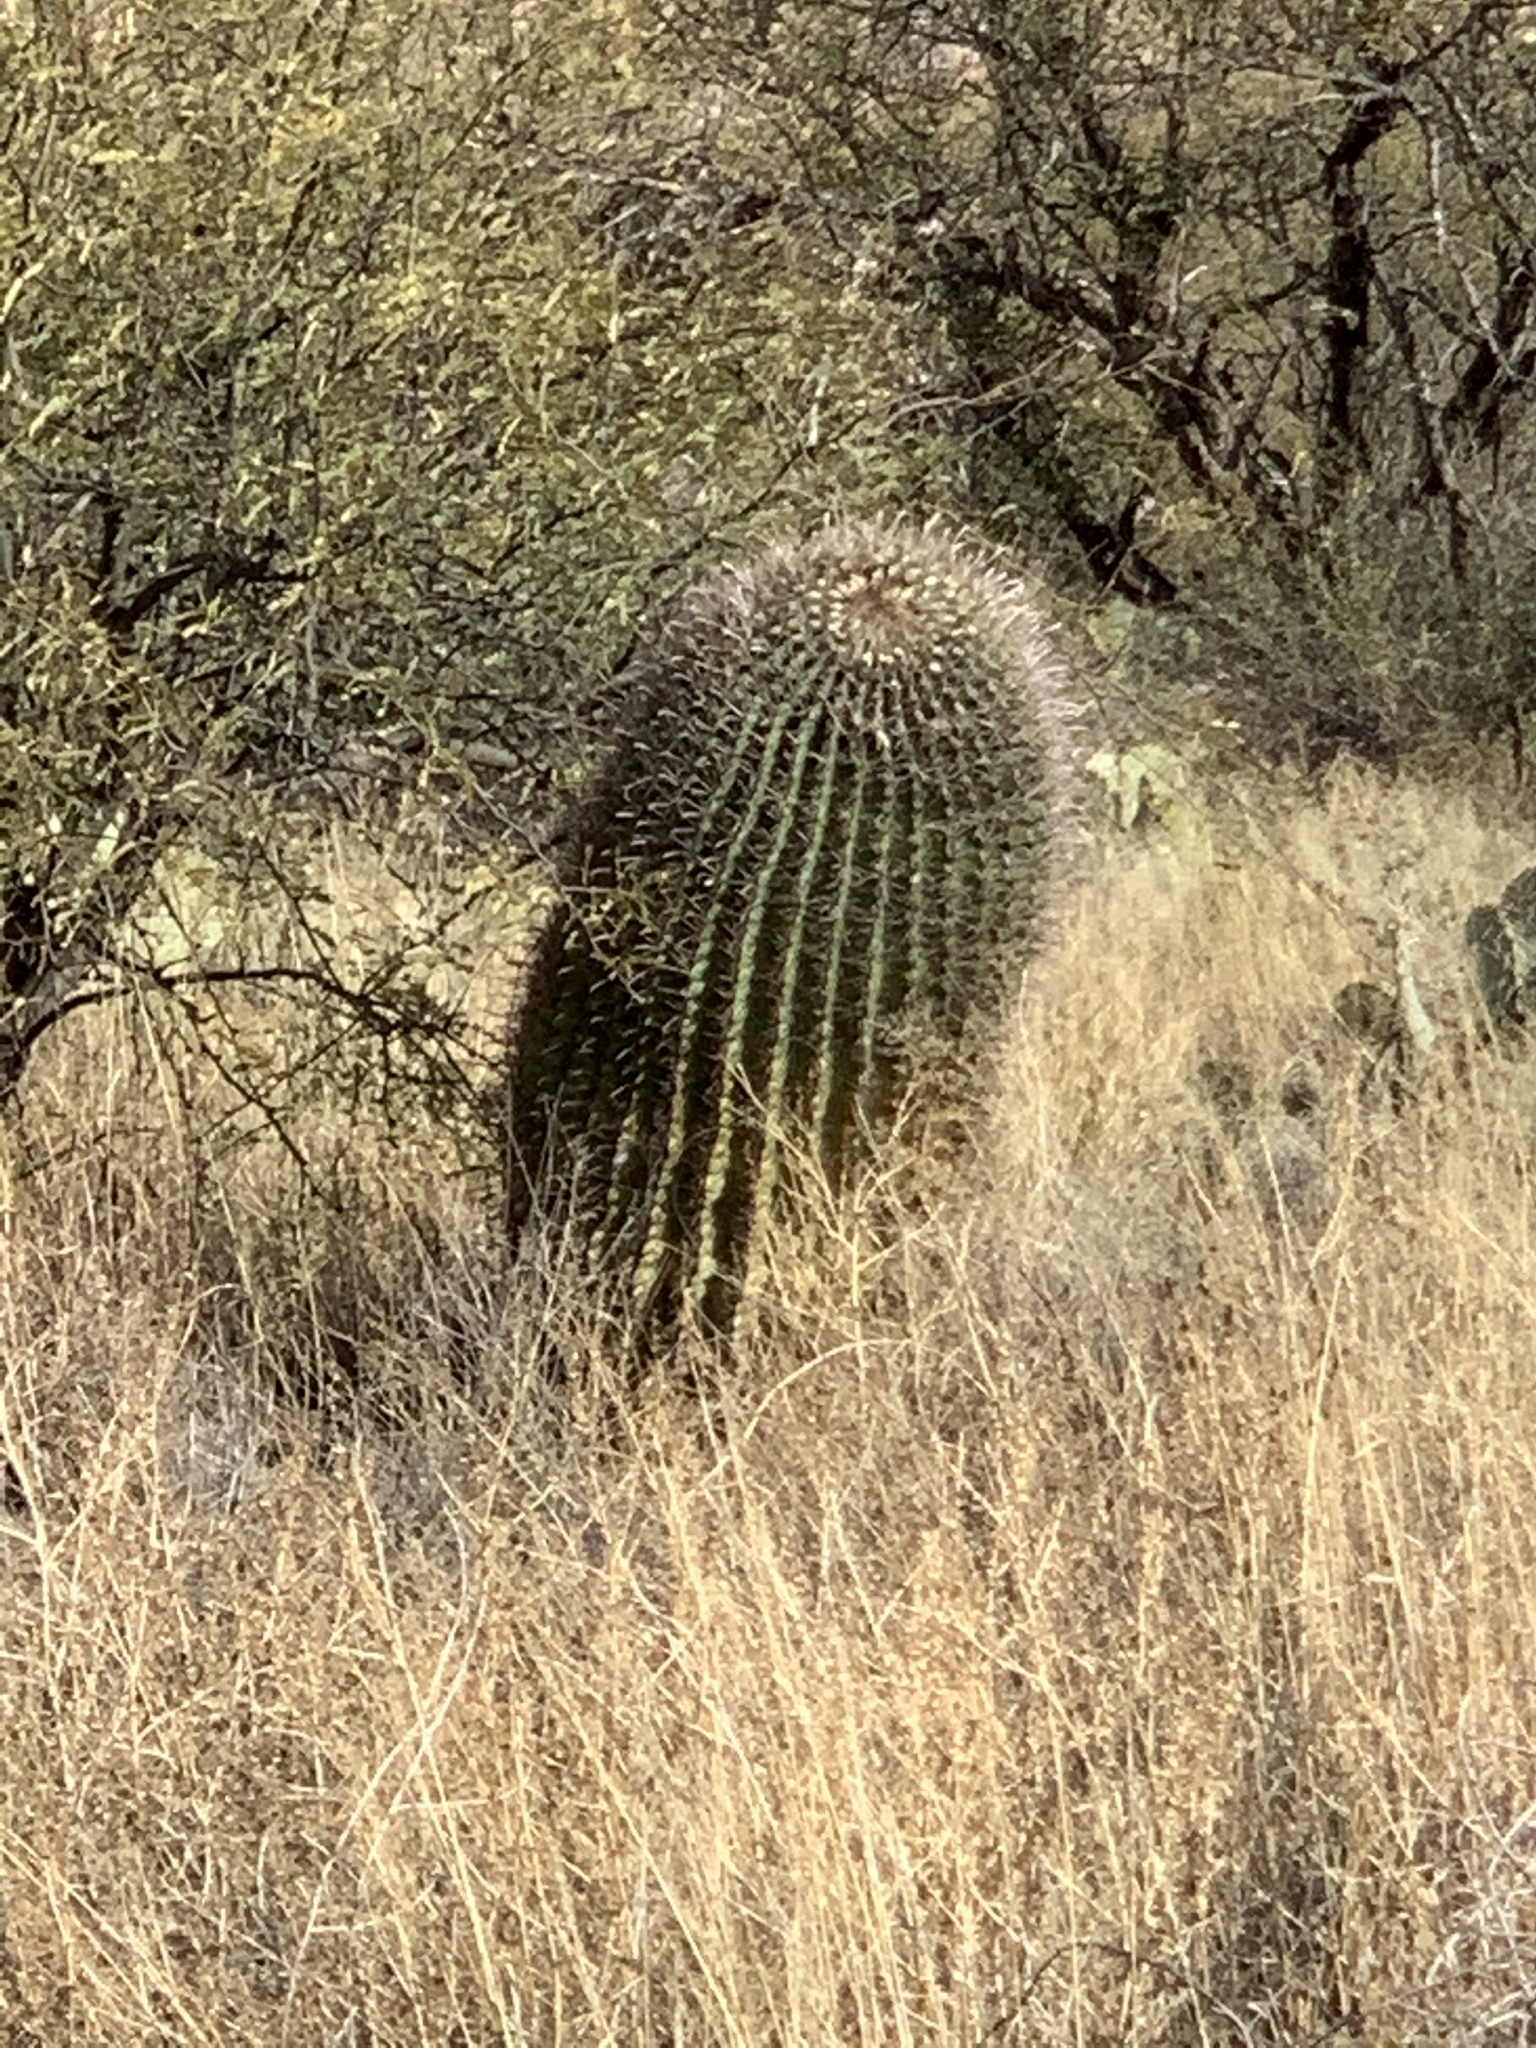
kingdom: Plantae
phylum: Tracheophyta
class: Magnoliopsida
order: Caryophyllales
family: Cactaceae
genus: Ferocactus
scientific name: Ferocactus wislizeni
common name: Candy barrel cactus
